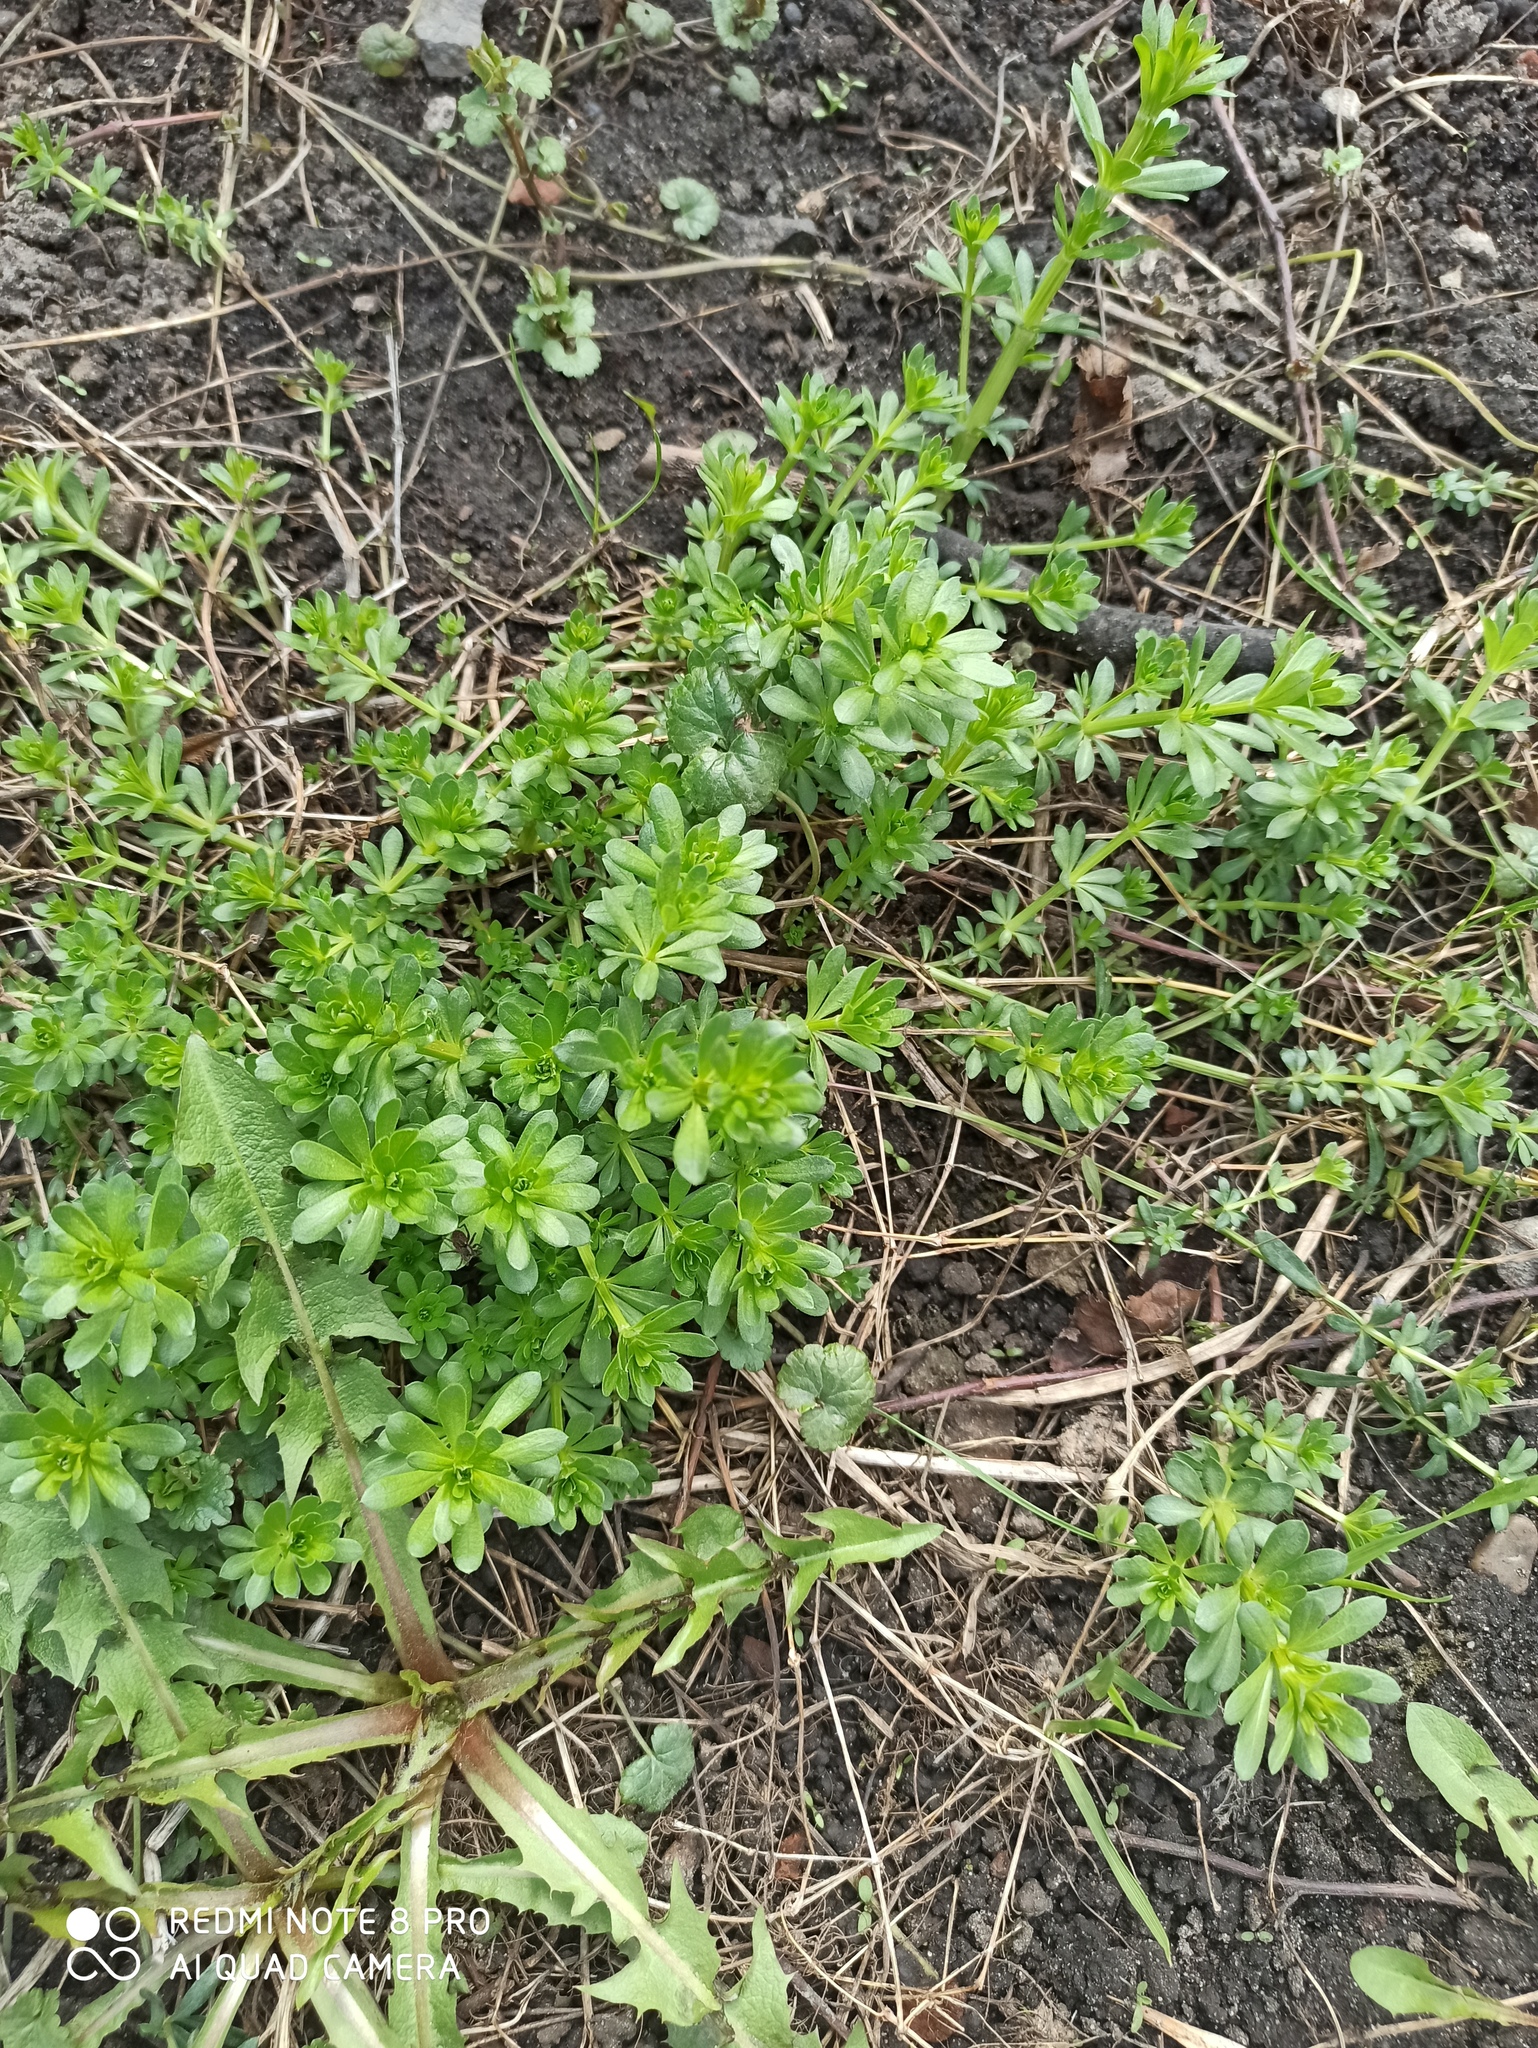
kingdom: Plantae
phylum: Tracheophyta
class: Magnoliopsida
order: Gentianales
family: Rubiaceae
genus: Galium
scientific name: Galium mollugo
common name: Hedge bedstraw
